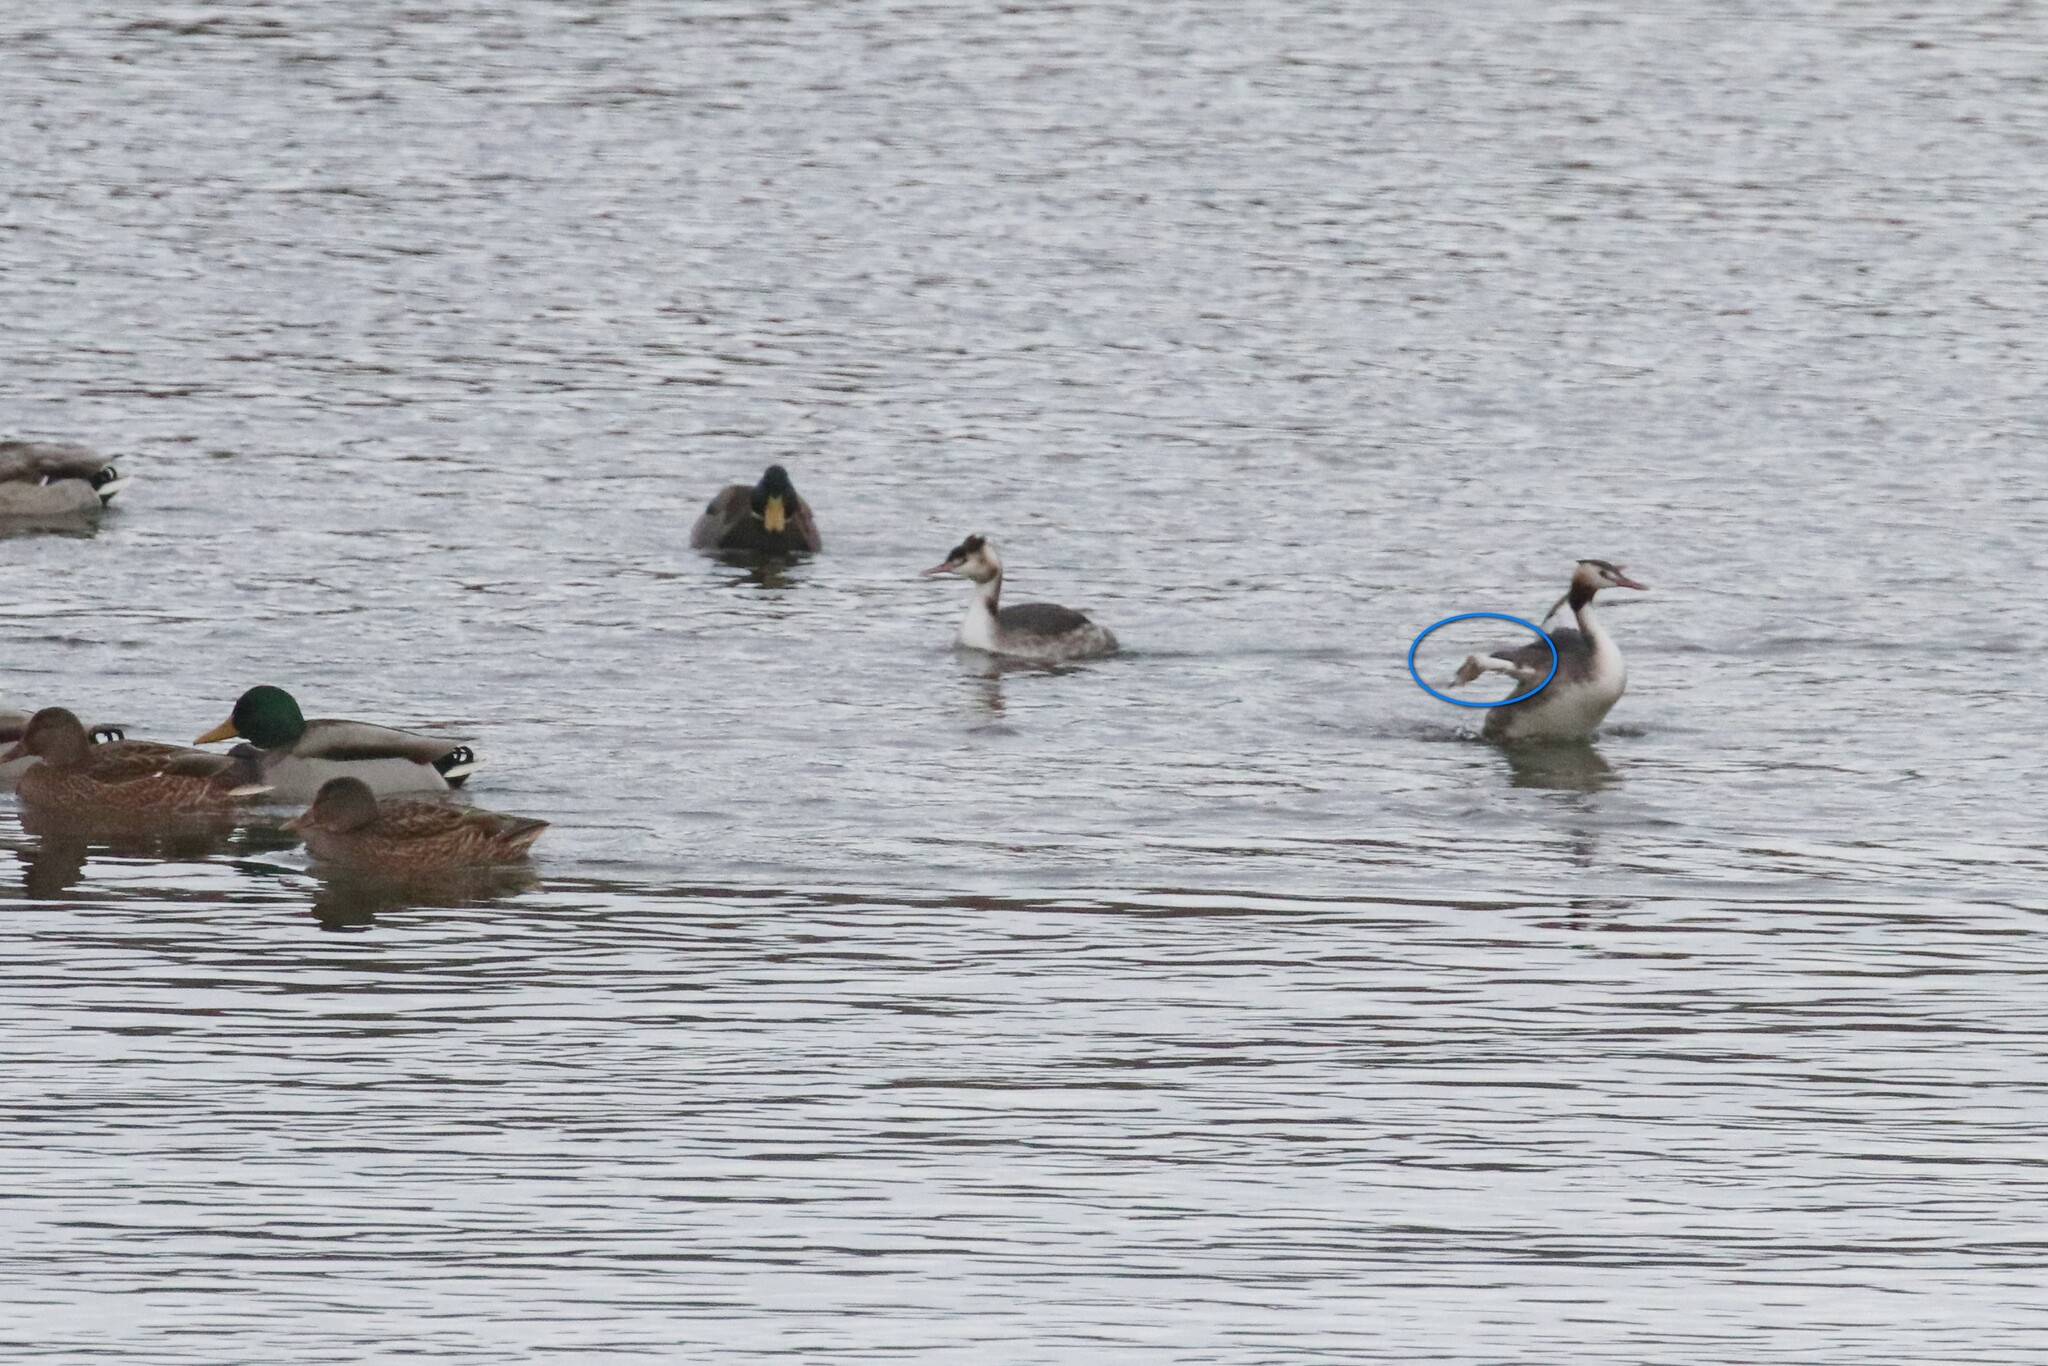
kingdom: Animalia
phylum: Chordata
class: Aves
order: Podicipediformes
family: Podicipedidae
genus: Podiceps
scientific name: Podiceps cristatus
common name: Great crested grebe
